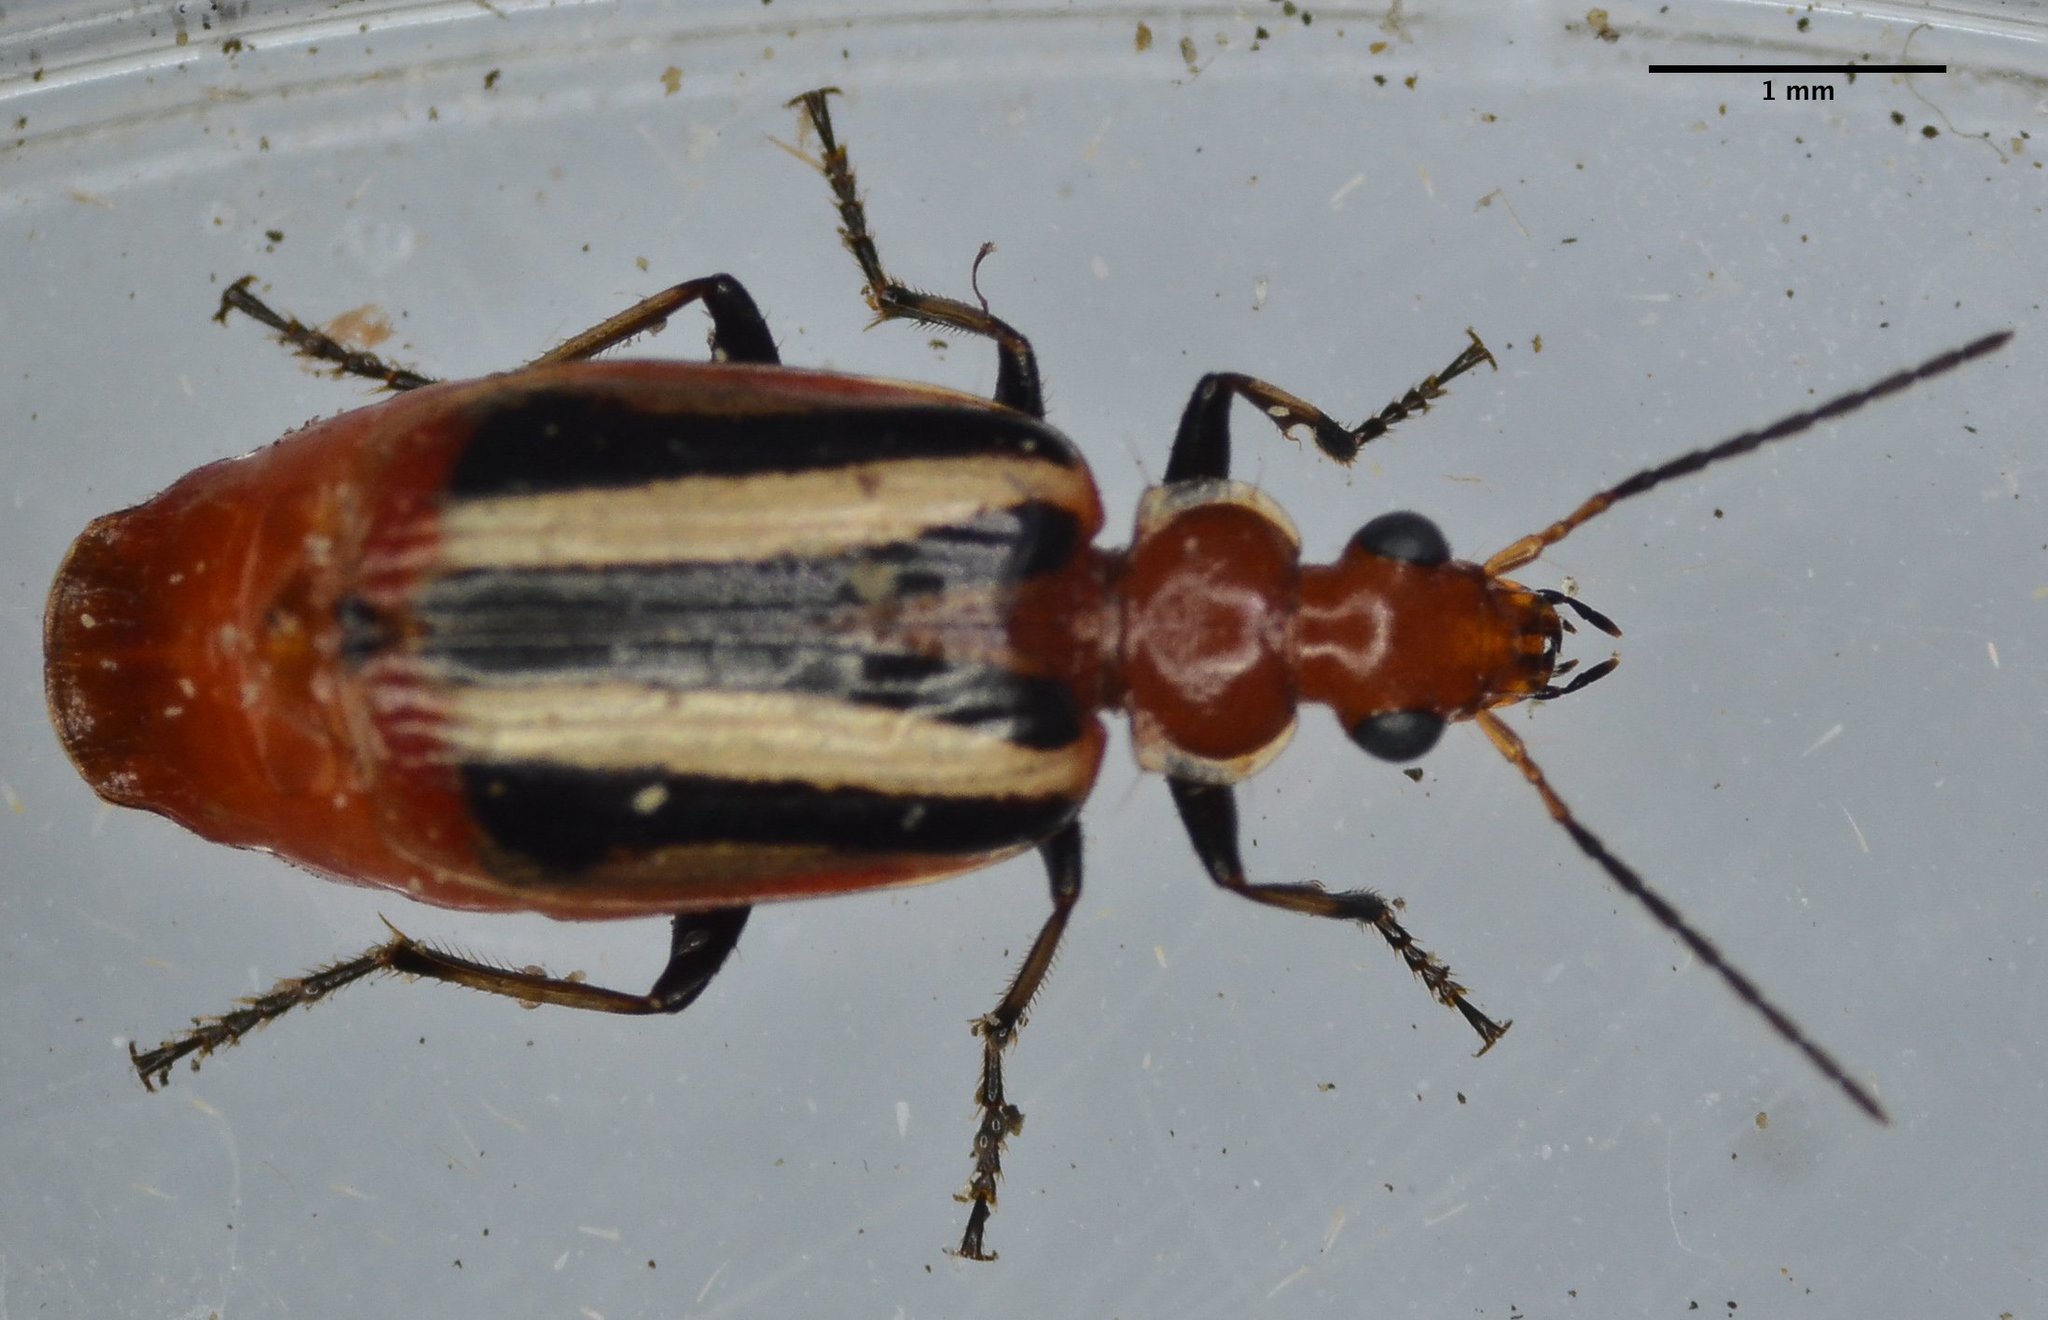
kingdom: Animalia
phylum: Arthropoda
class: Insecta
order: Coleoptera
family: Carabidae
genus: Lebia
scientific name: Lebia vittata
